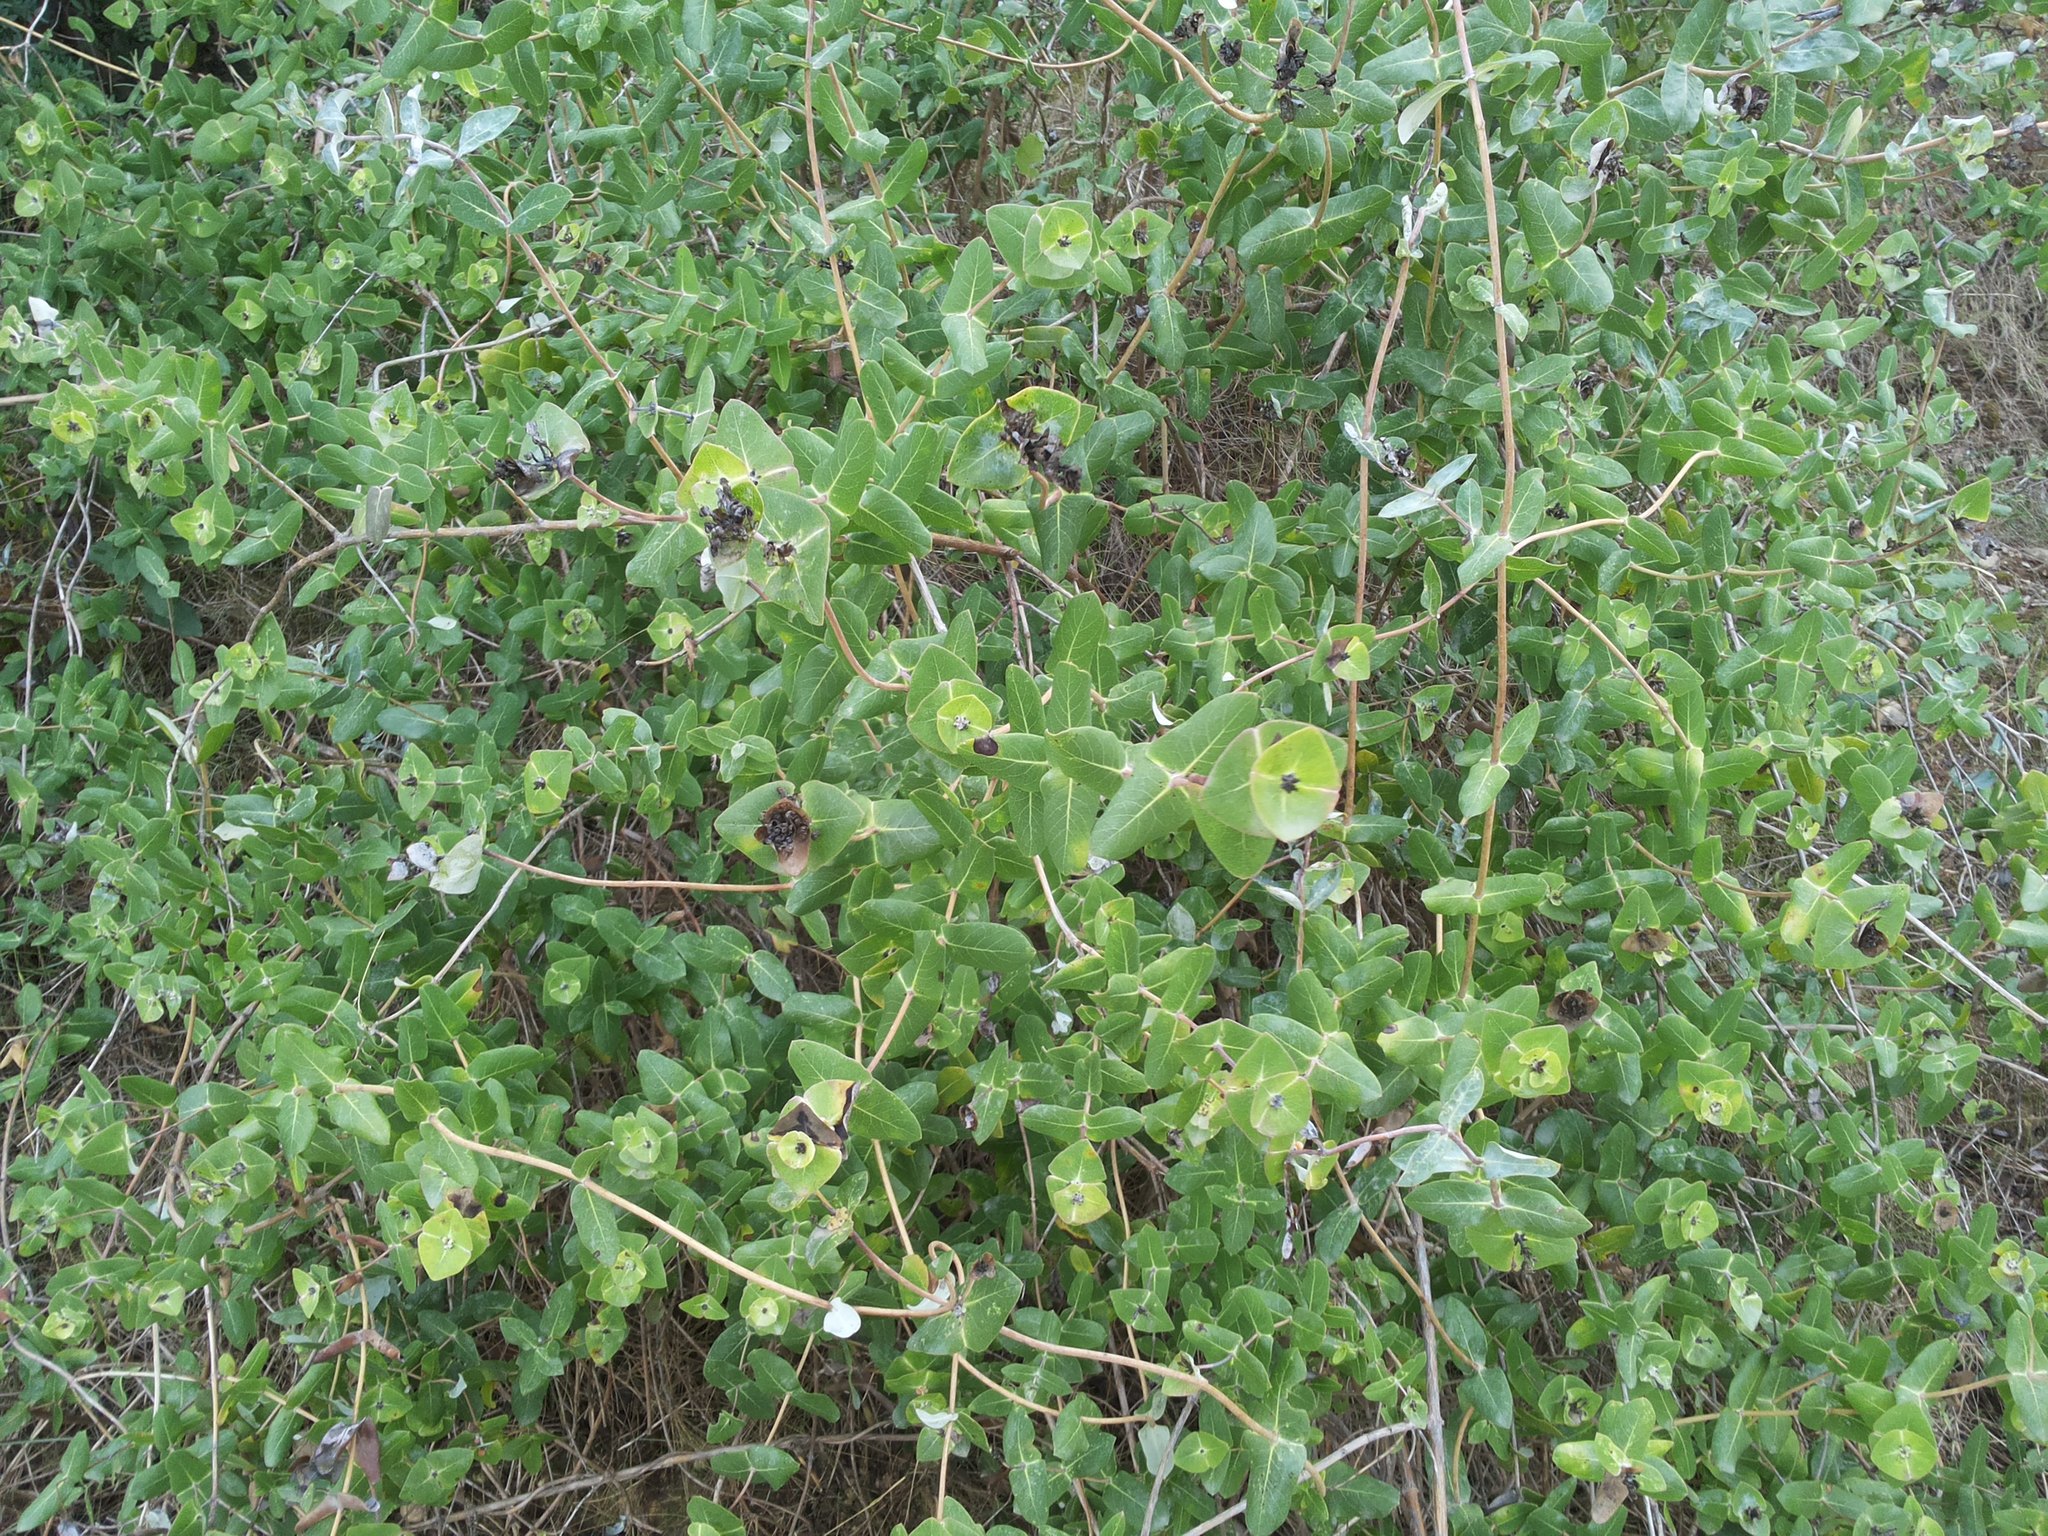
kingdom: Plantae
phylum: Tracheophyta
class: Magnoliopsida
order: Dipsacales
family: Caprifoliaceae
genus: Lonicera
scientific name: Lonicera implexa
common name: Minorca honeysuckle
